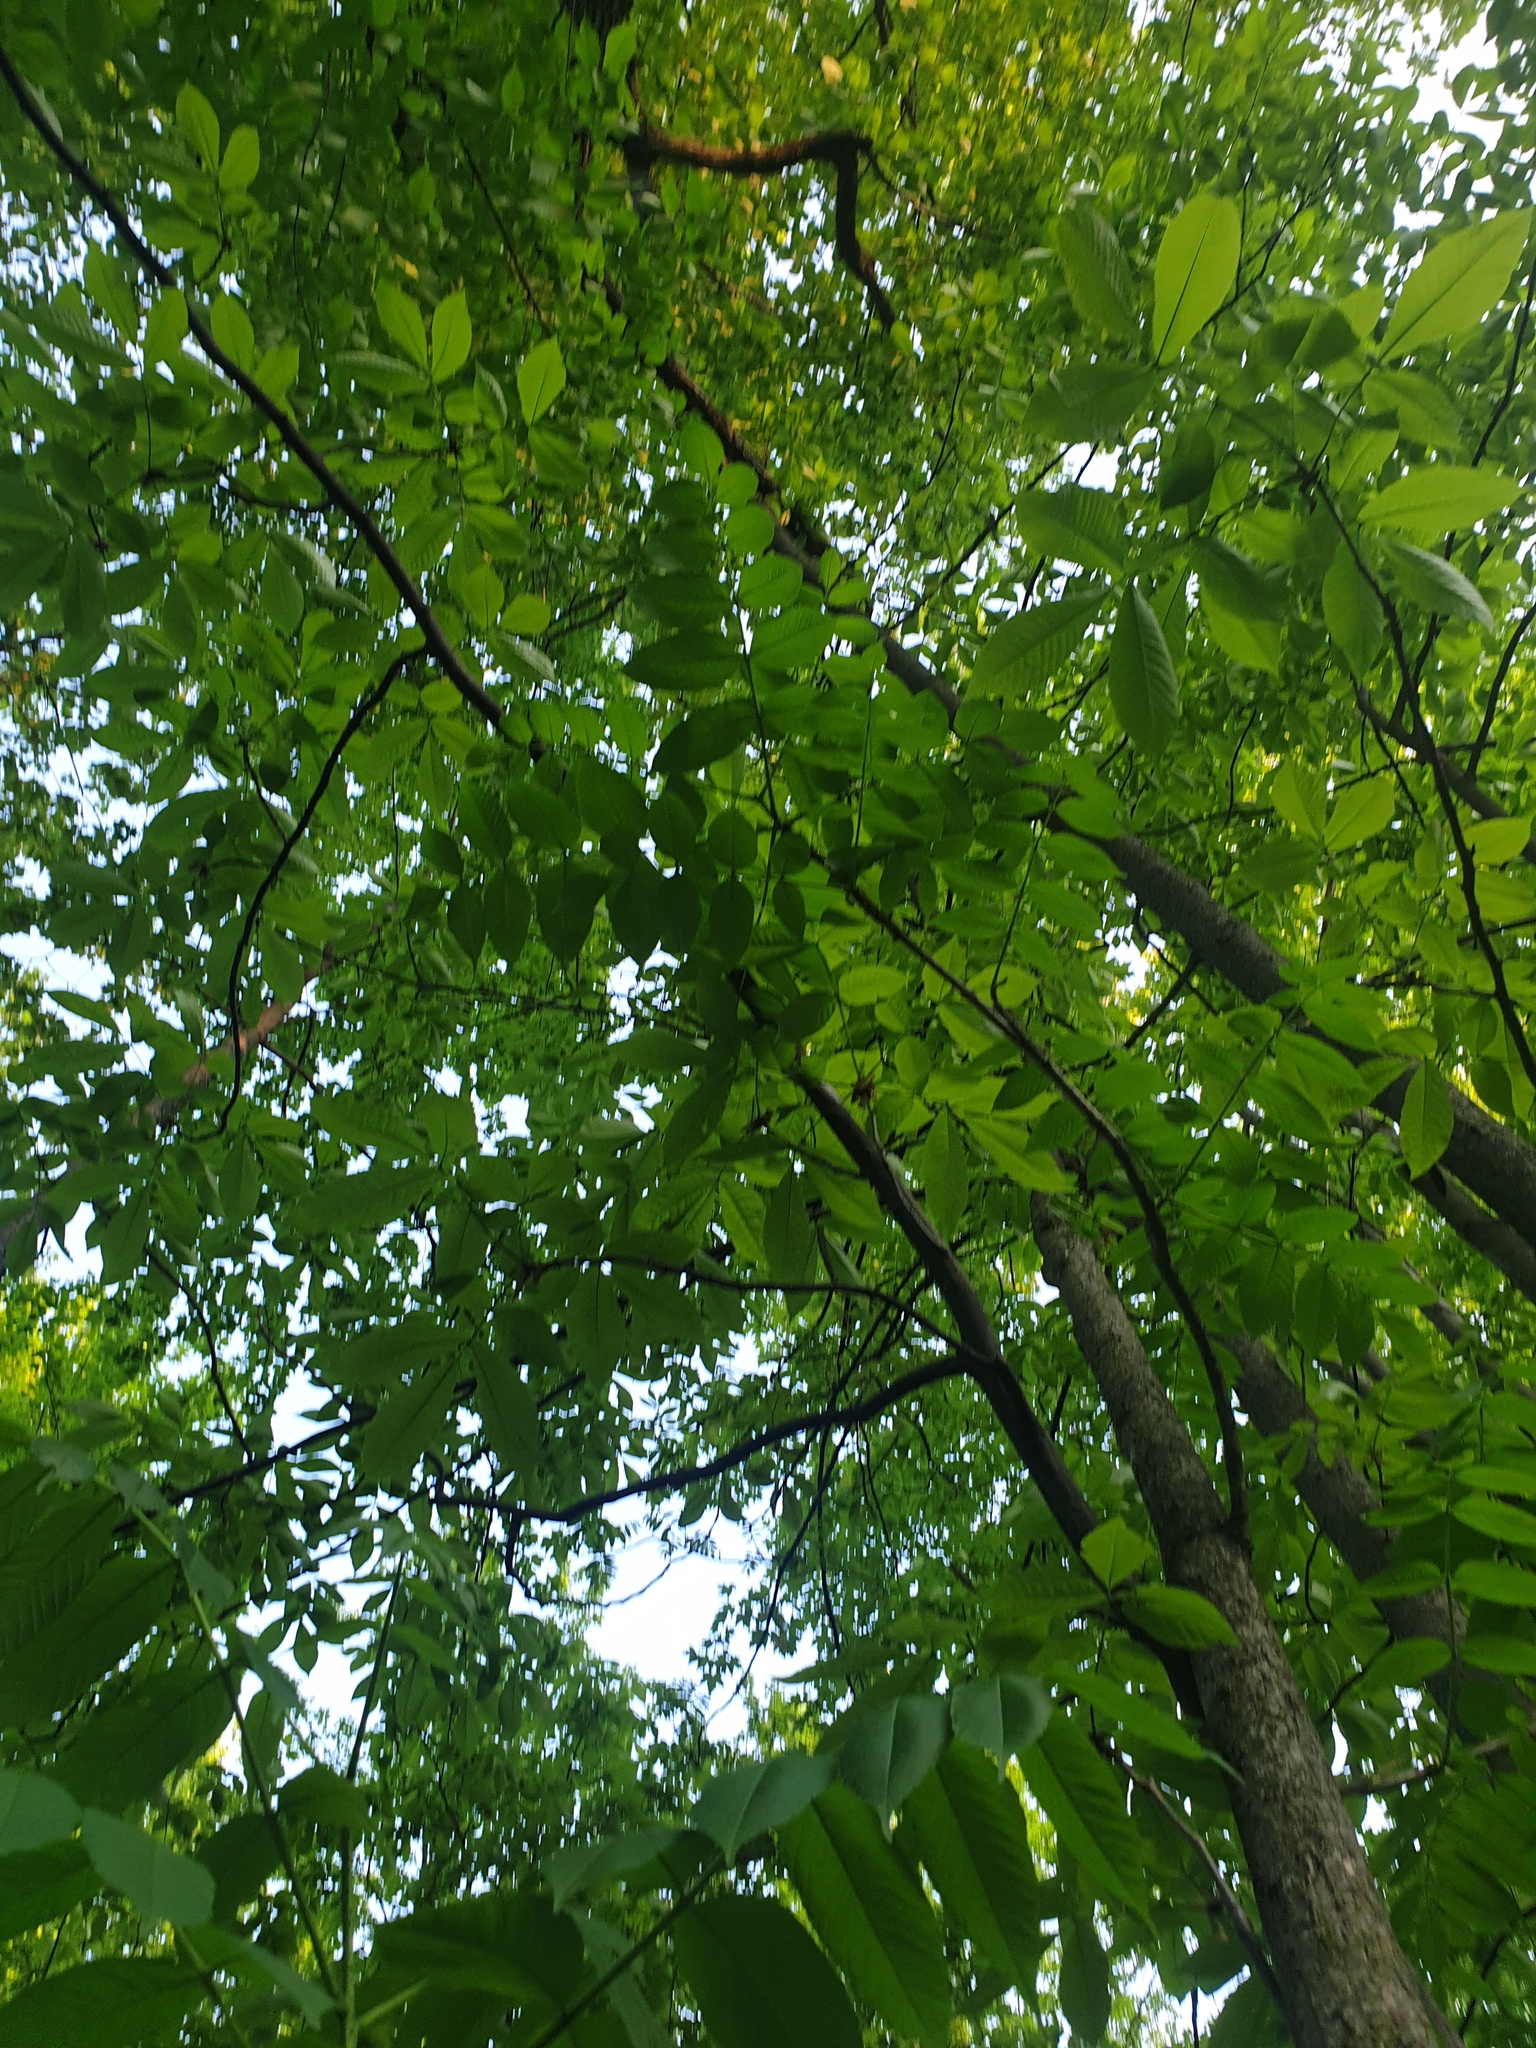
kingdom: Plantae
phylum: Tracheophyta
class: Magnoliopsida
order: Lamiales
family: Oleaceae
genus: Fraxinus
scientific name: Fraxinus nigra
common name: Black ash
